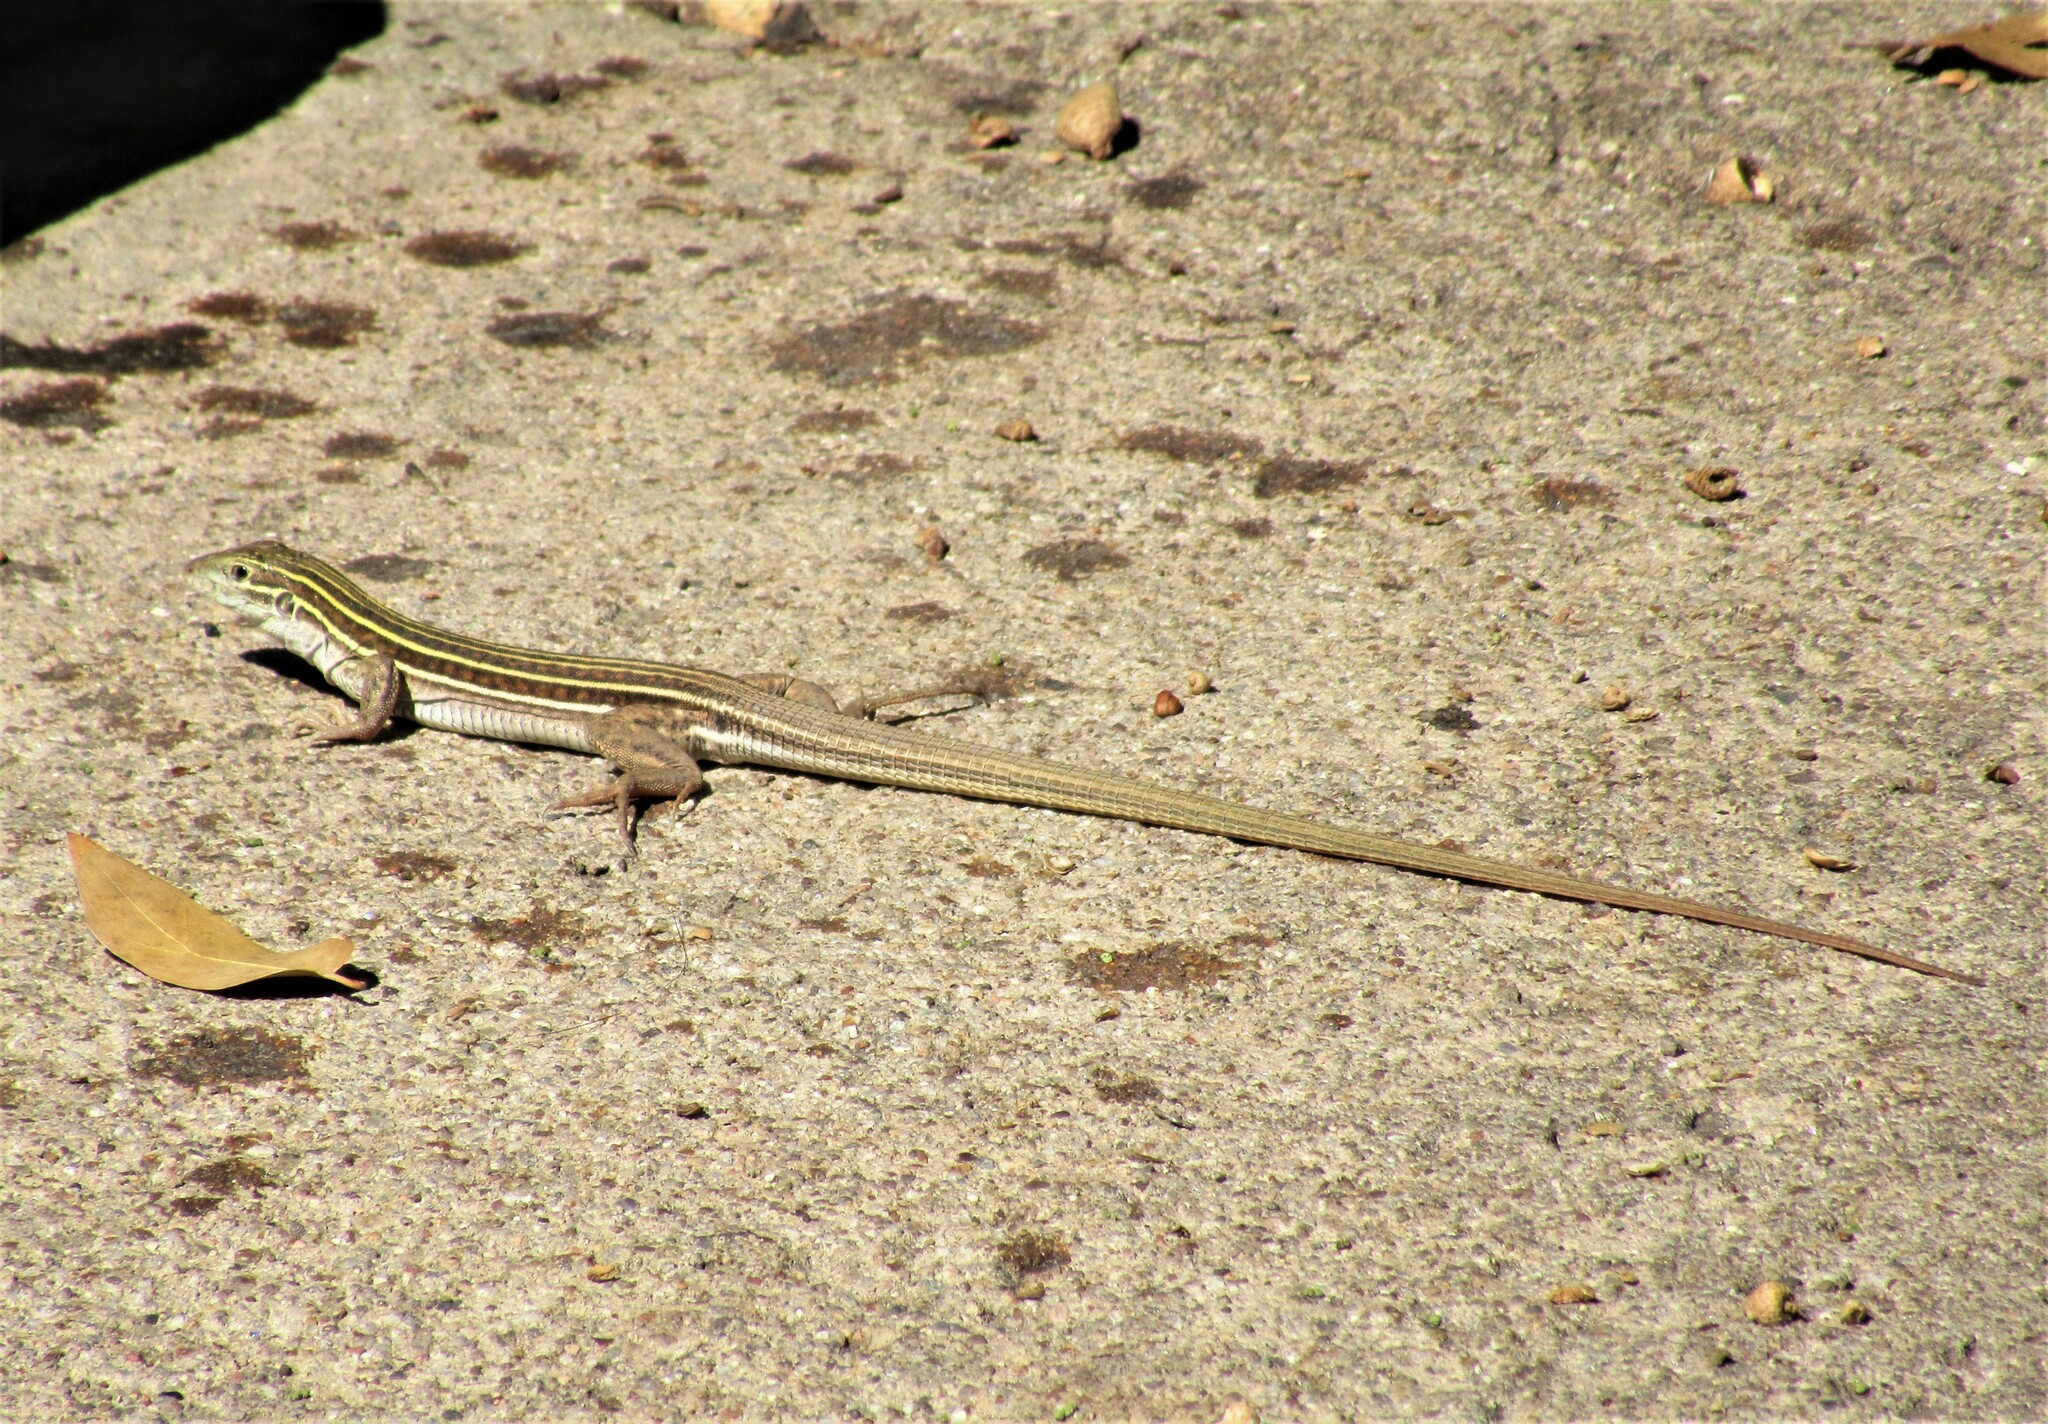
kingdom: Animalia
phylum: Chordata
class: Squamata
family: Teiidae
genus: Aspidoscelis
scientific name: Aspidoscelis sonorae
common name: Sonoran spotted whiptail
